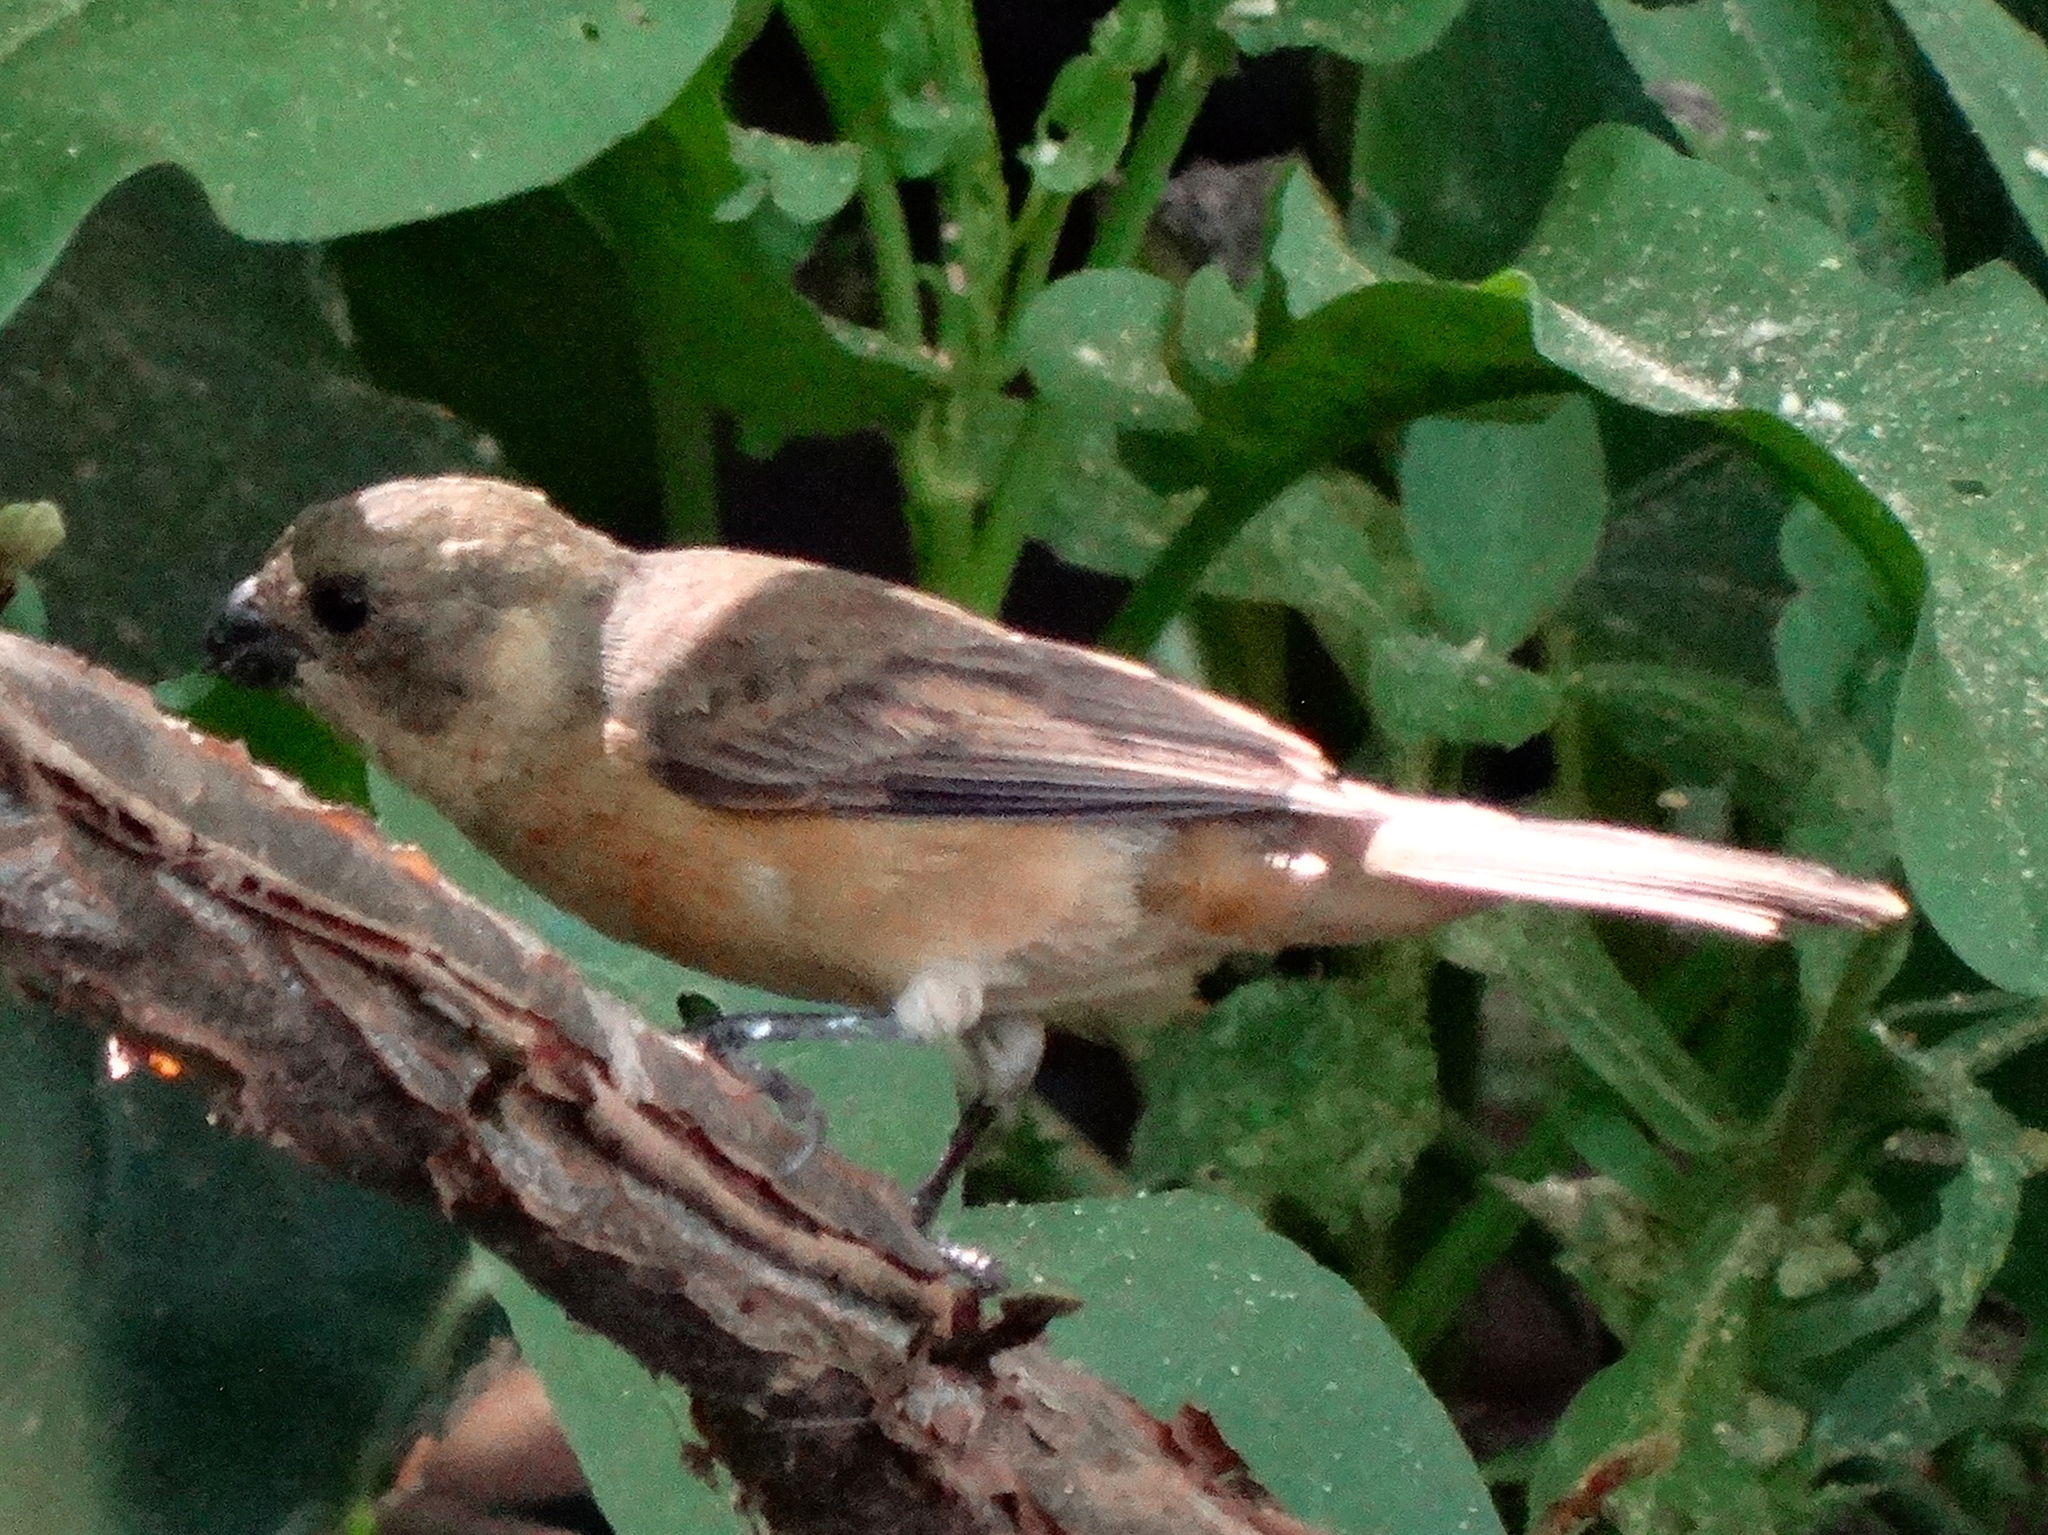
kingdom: Animalia
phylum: Chordata
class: Aves
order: Passeriformes
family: Thraupidae
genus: Sporophila
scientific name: Sporophila torqueola
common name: White-collared seedeater
